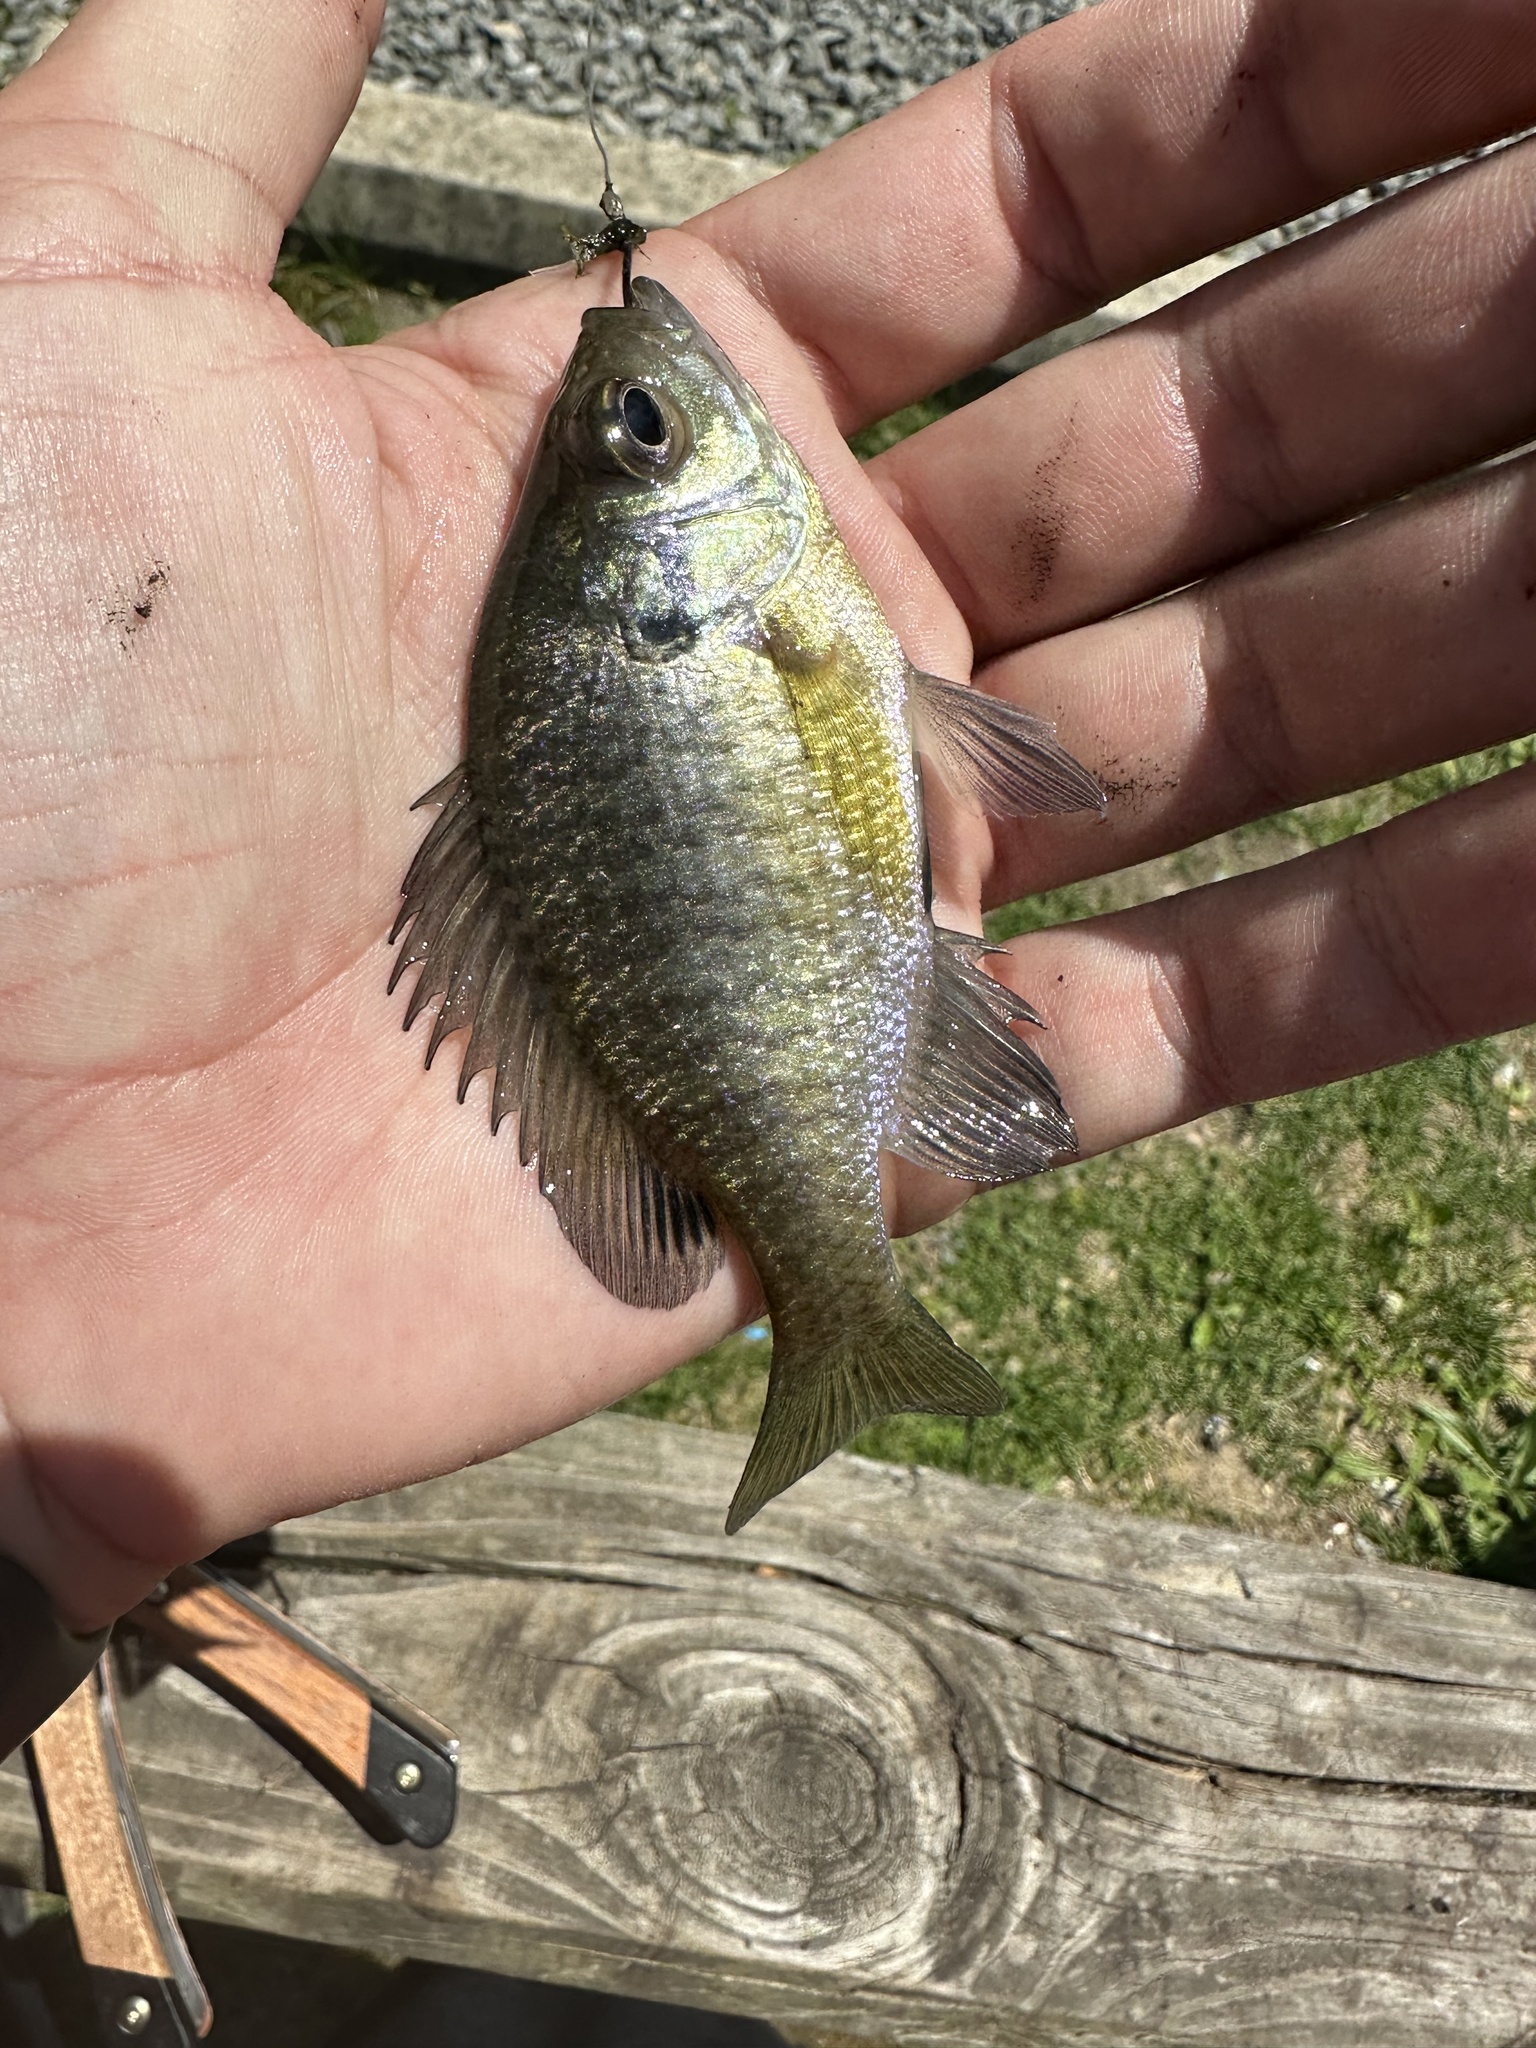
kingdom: Animalia
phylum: Chordata
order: Perciformes
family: Centrarchidae
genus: Lepomis
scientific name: Lepomis macrochirus
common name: Bluegill
